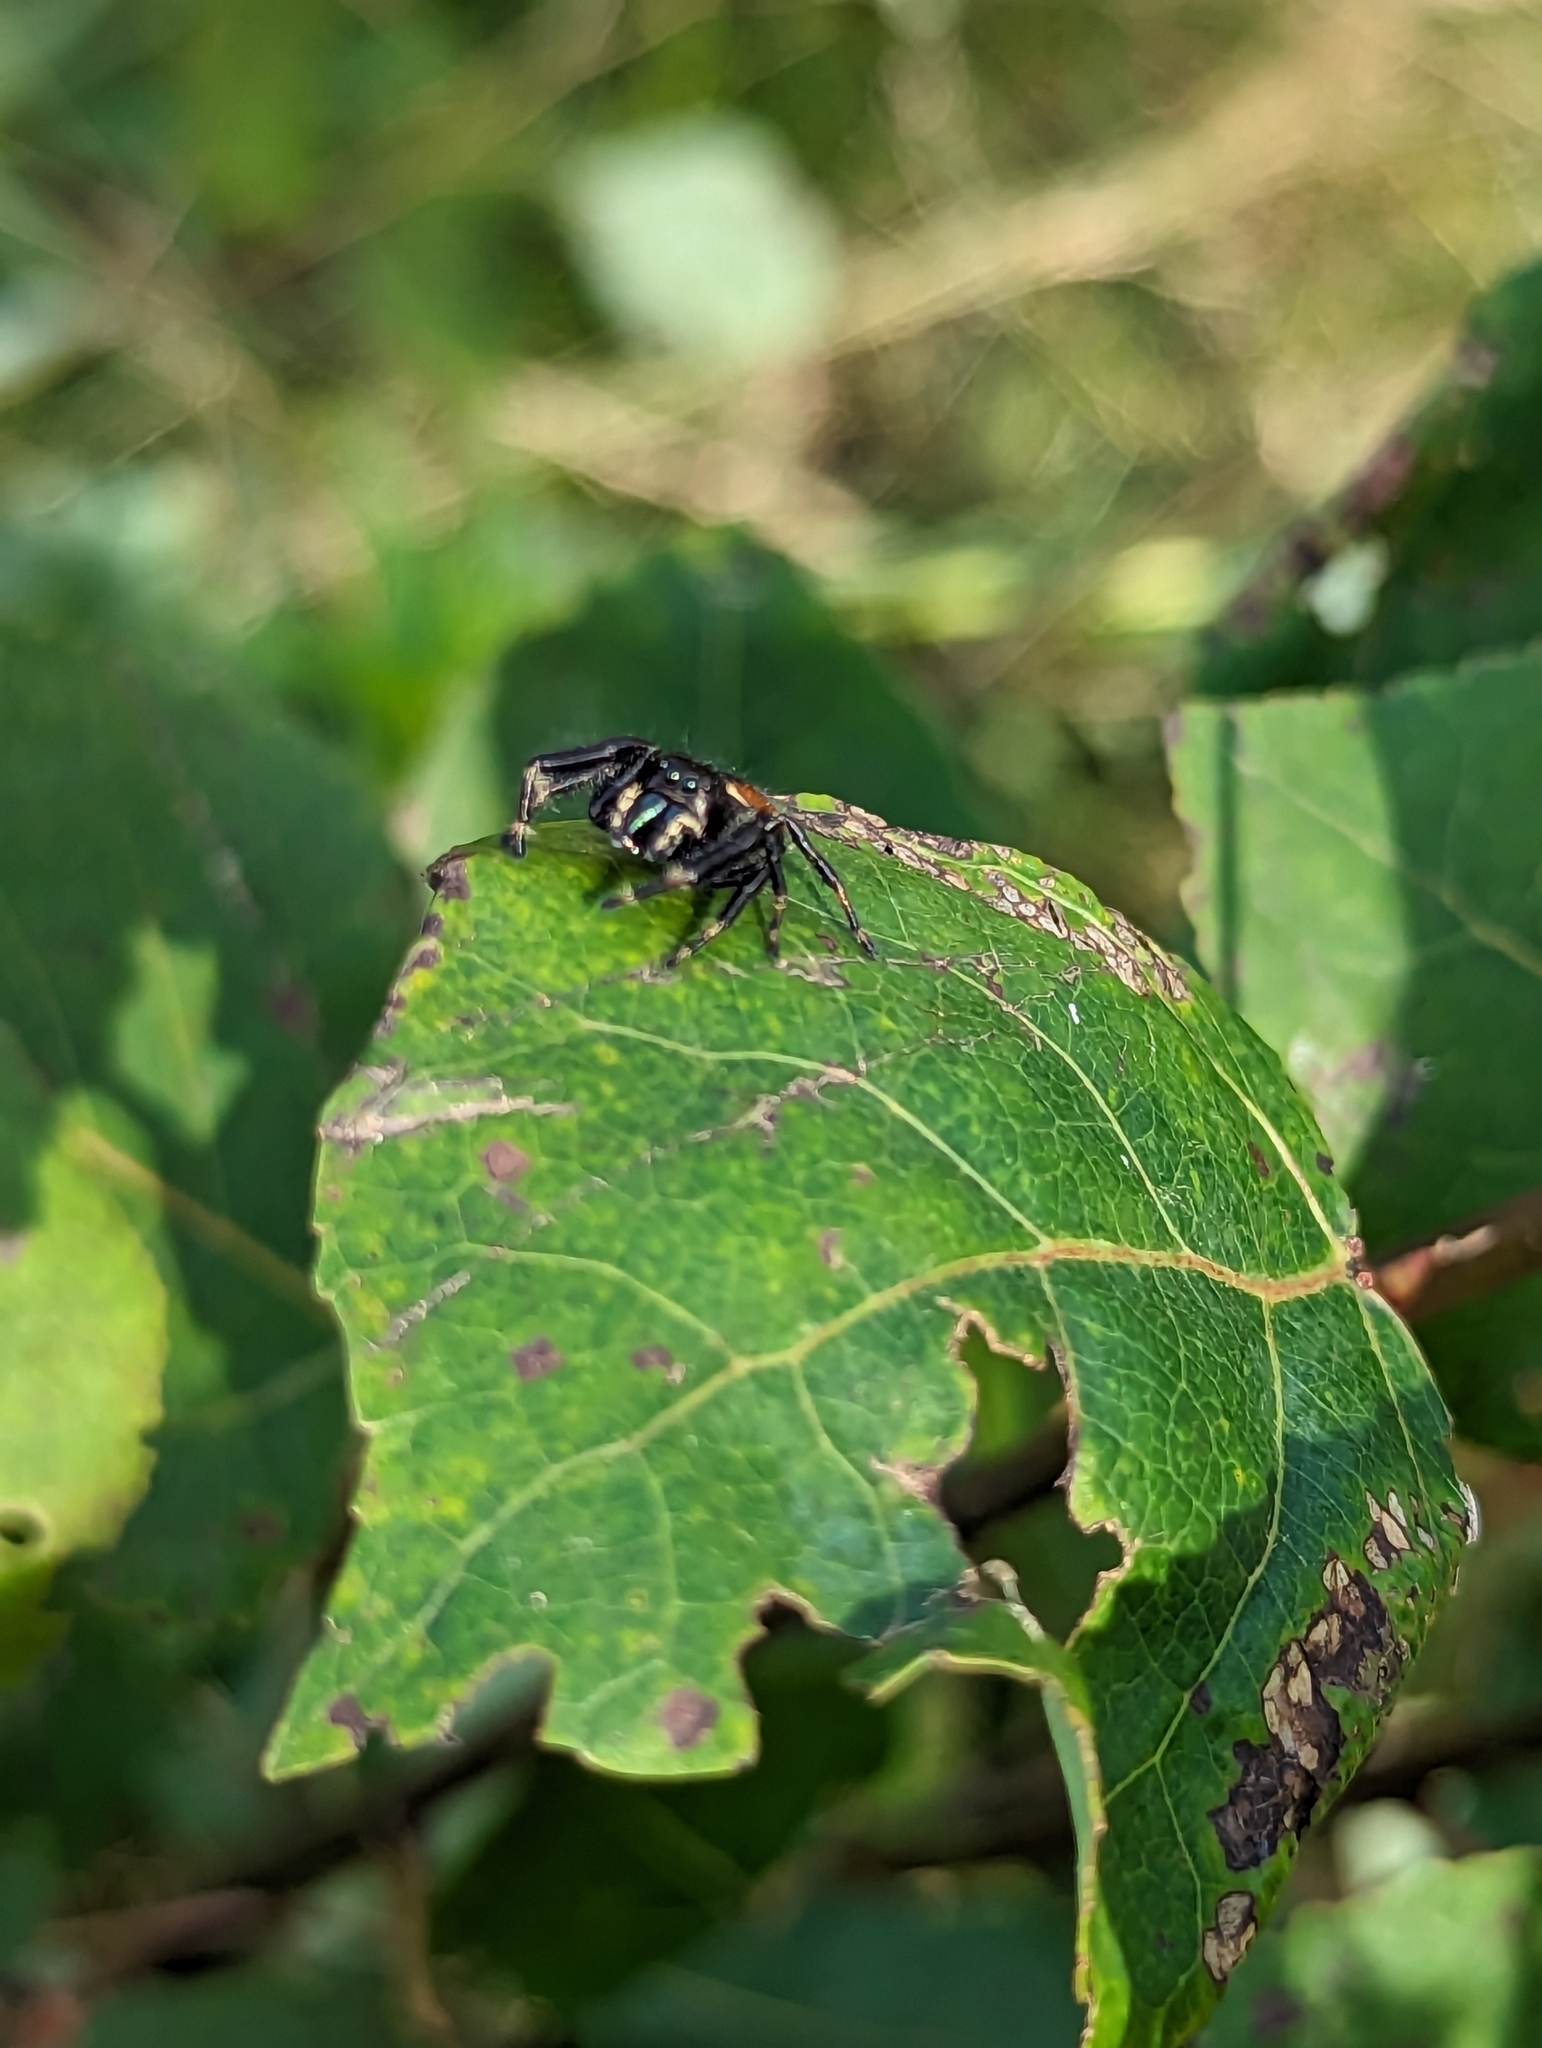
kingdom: Animalia
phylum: Arthropoda
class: Arachnida
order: Araneae
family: Salticidae
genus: Phidippus
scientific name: Phidippus clarus
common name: Brilliant jumping spider
